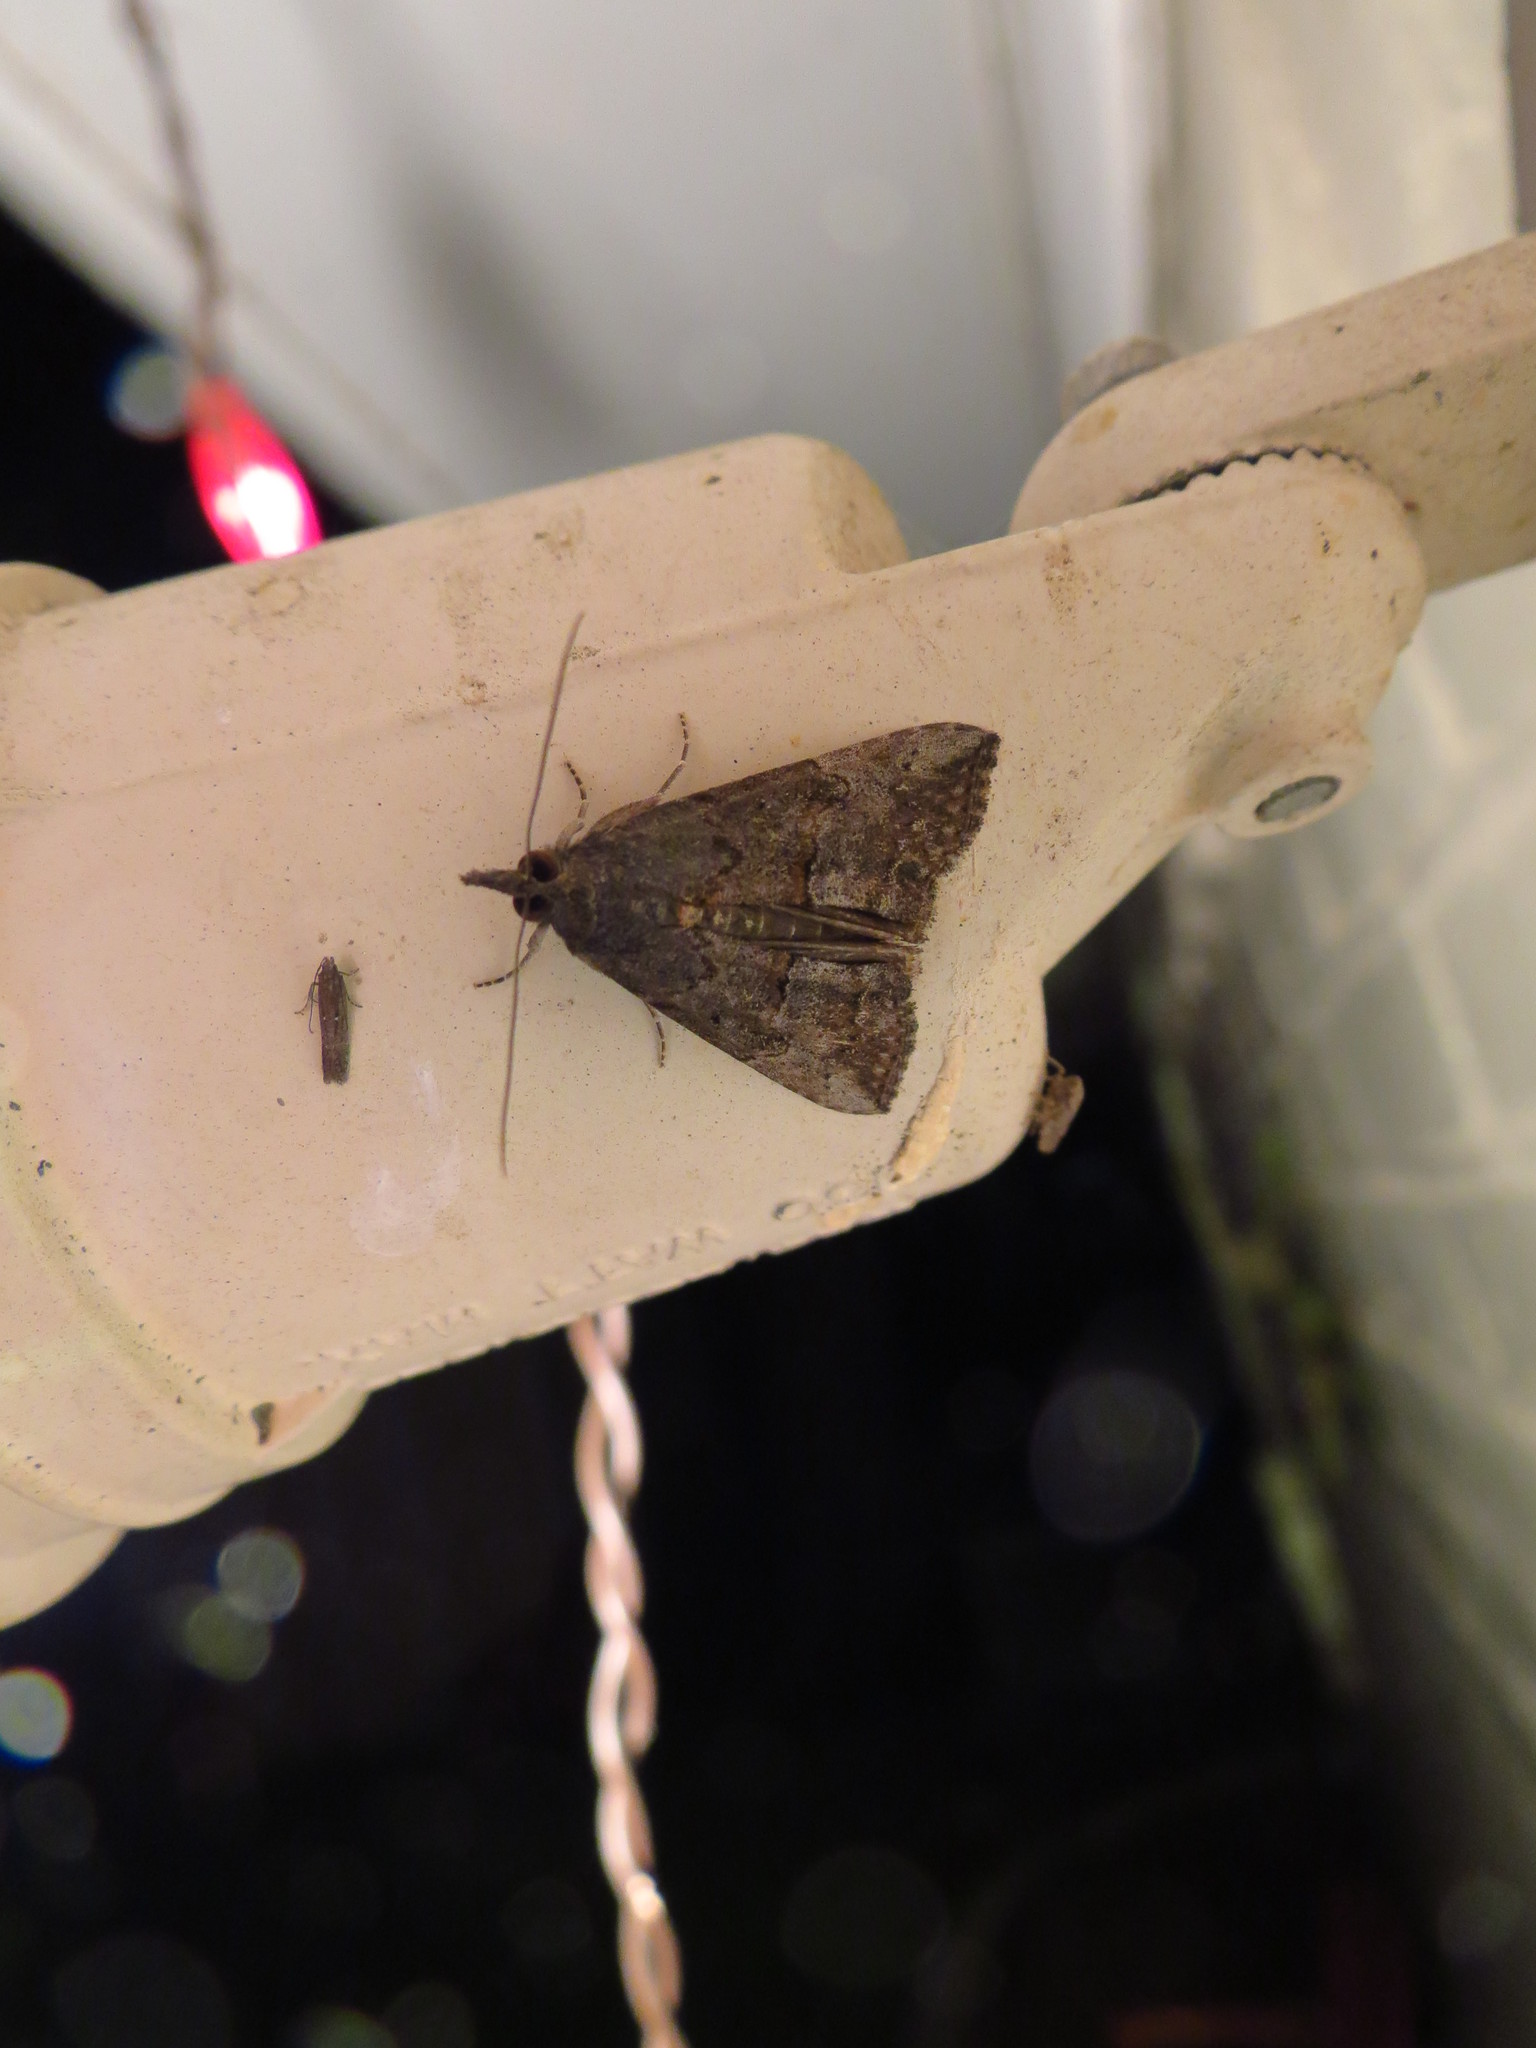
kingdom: Animalia
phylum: Arthropoda
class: Insecta
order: Lepidoptera
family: Erebidae
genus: Hypena
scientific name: Hypena scabra
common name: Green cloverworm
